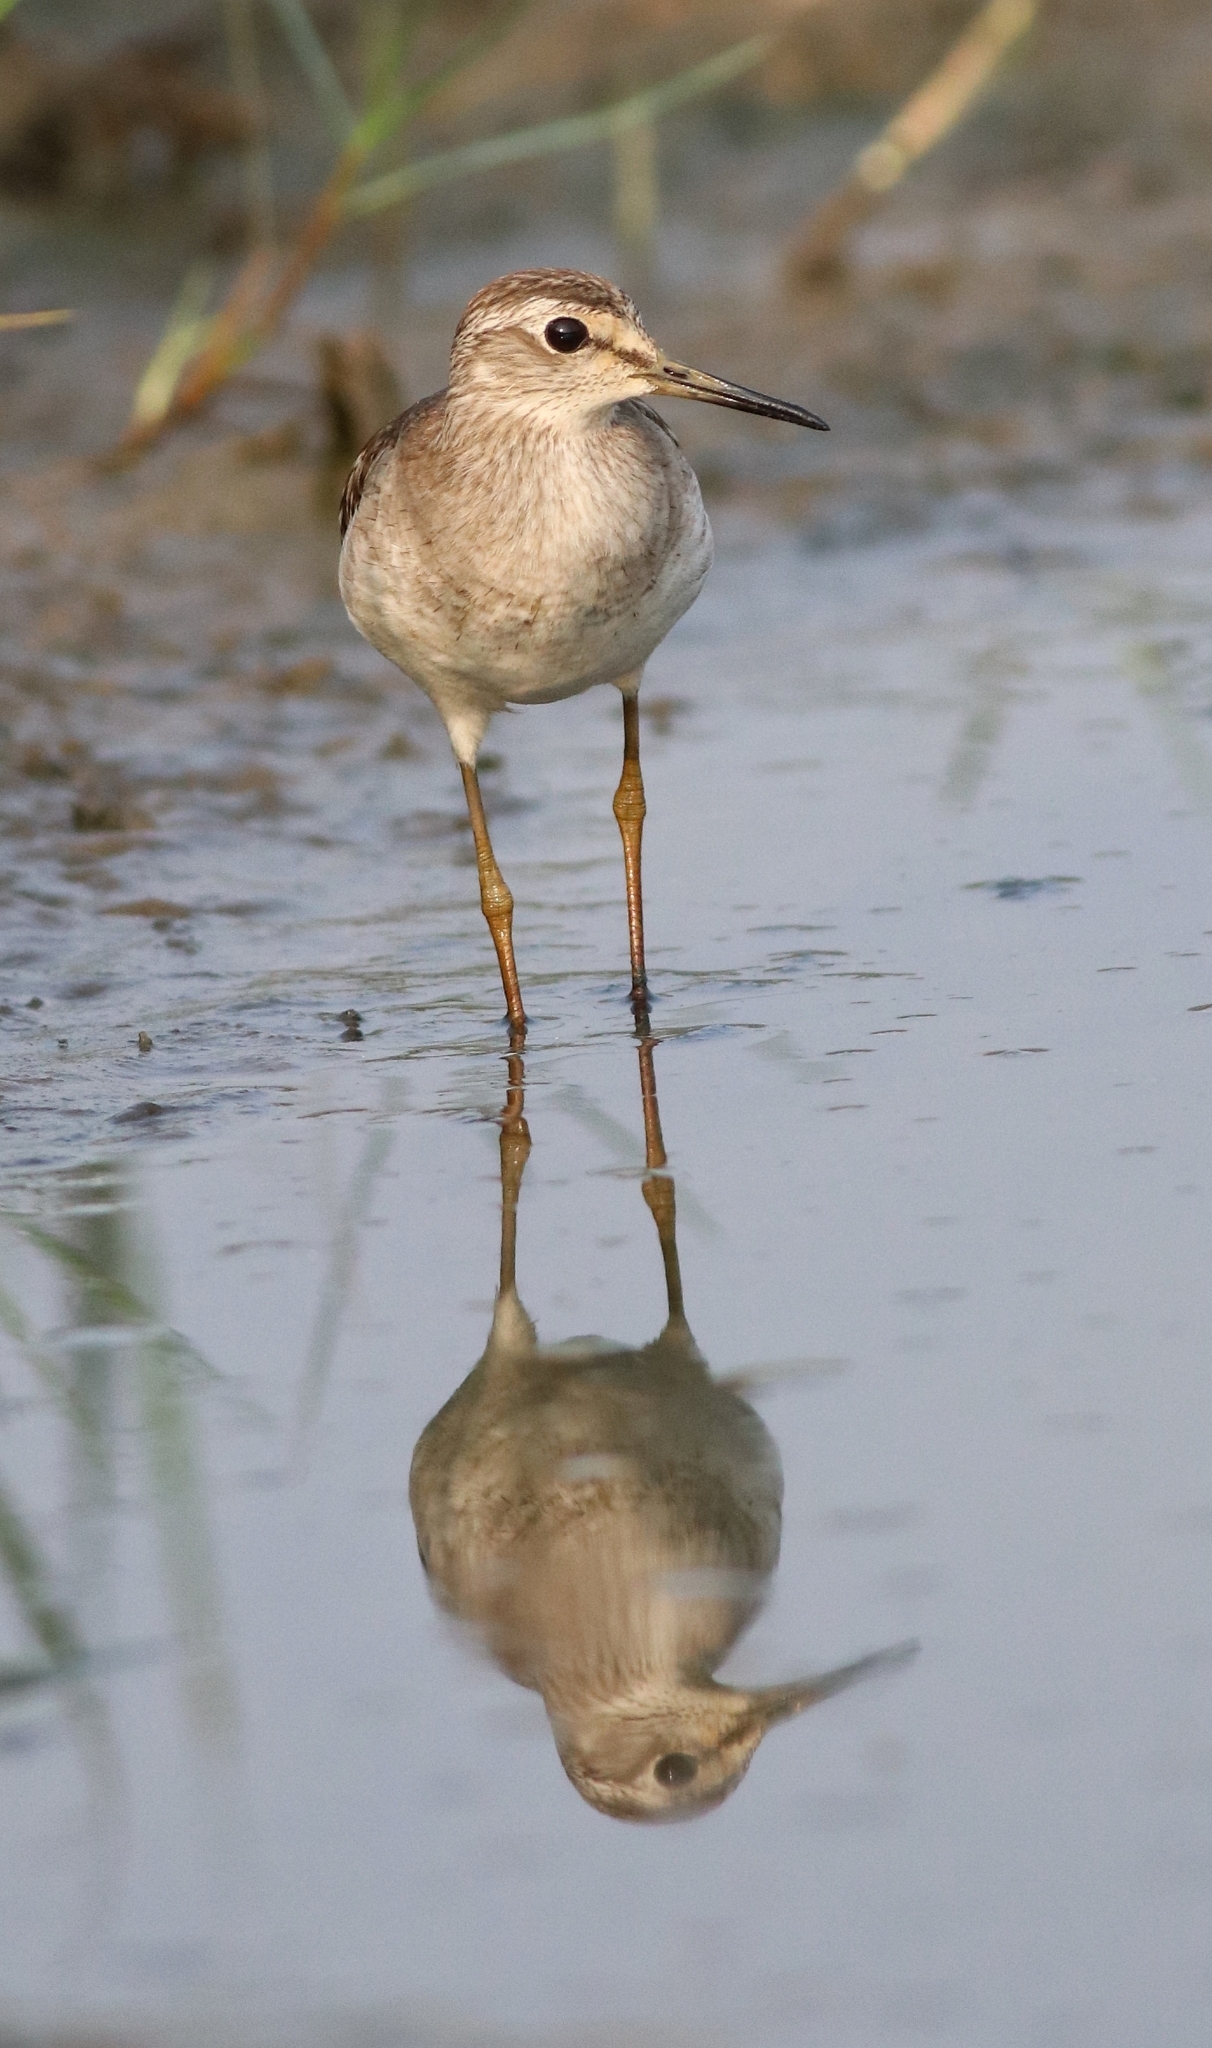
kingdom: Animalia
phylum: Chordata
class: Aves
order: Charadriiformes
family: Scolopacidae
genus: Tringa
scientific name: Tringa glareola
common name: Wood sandpiper
